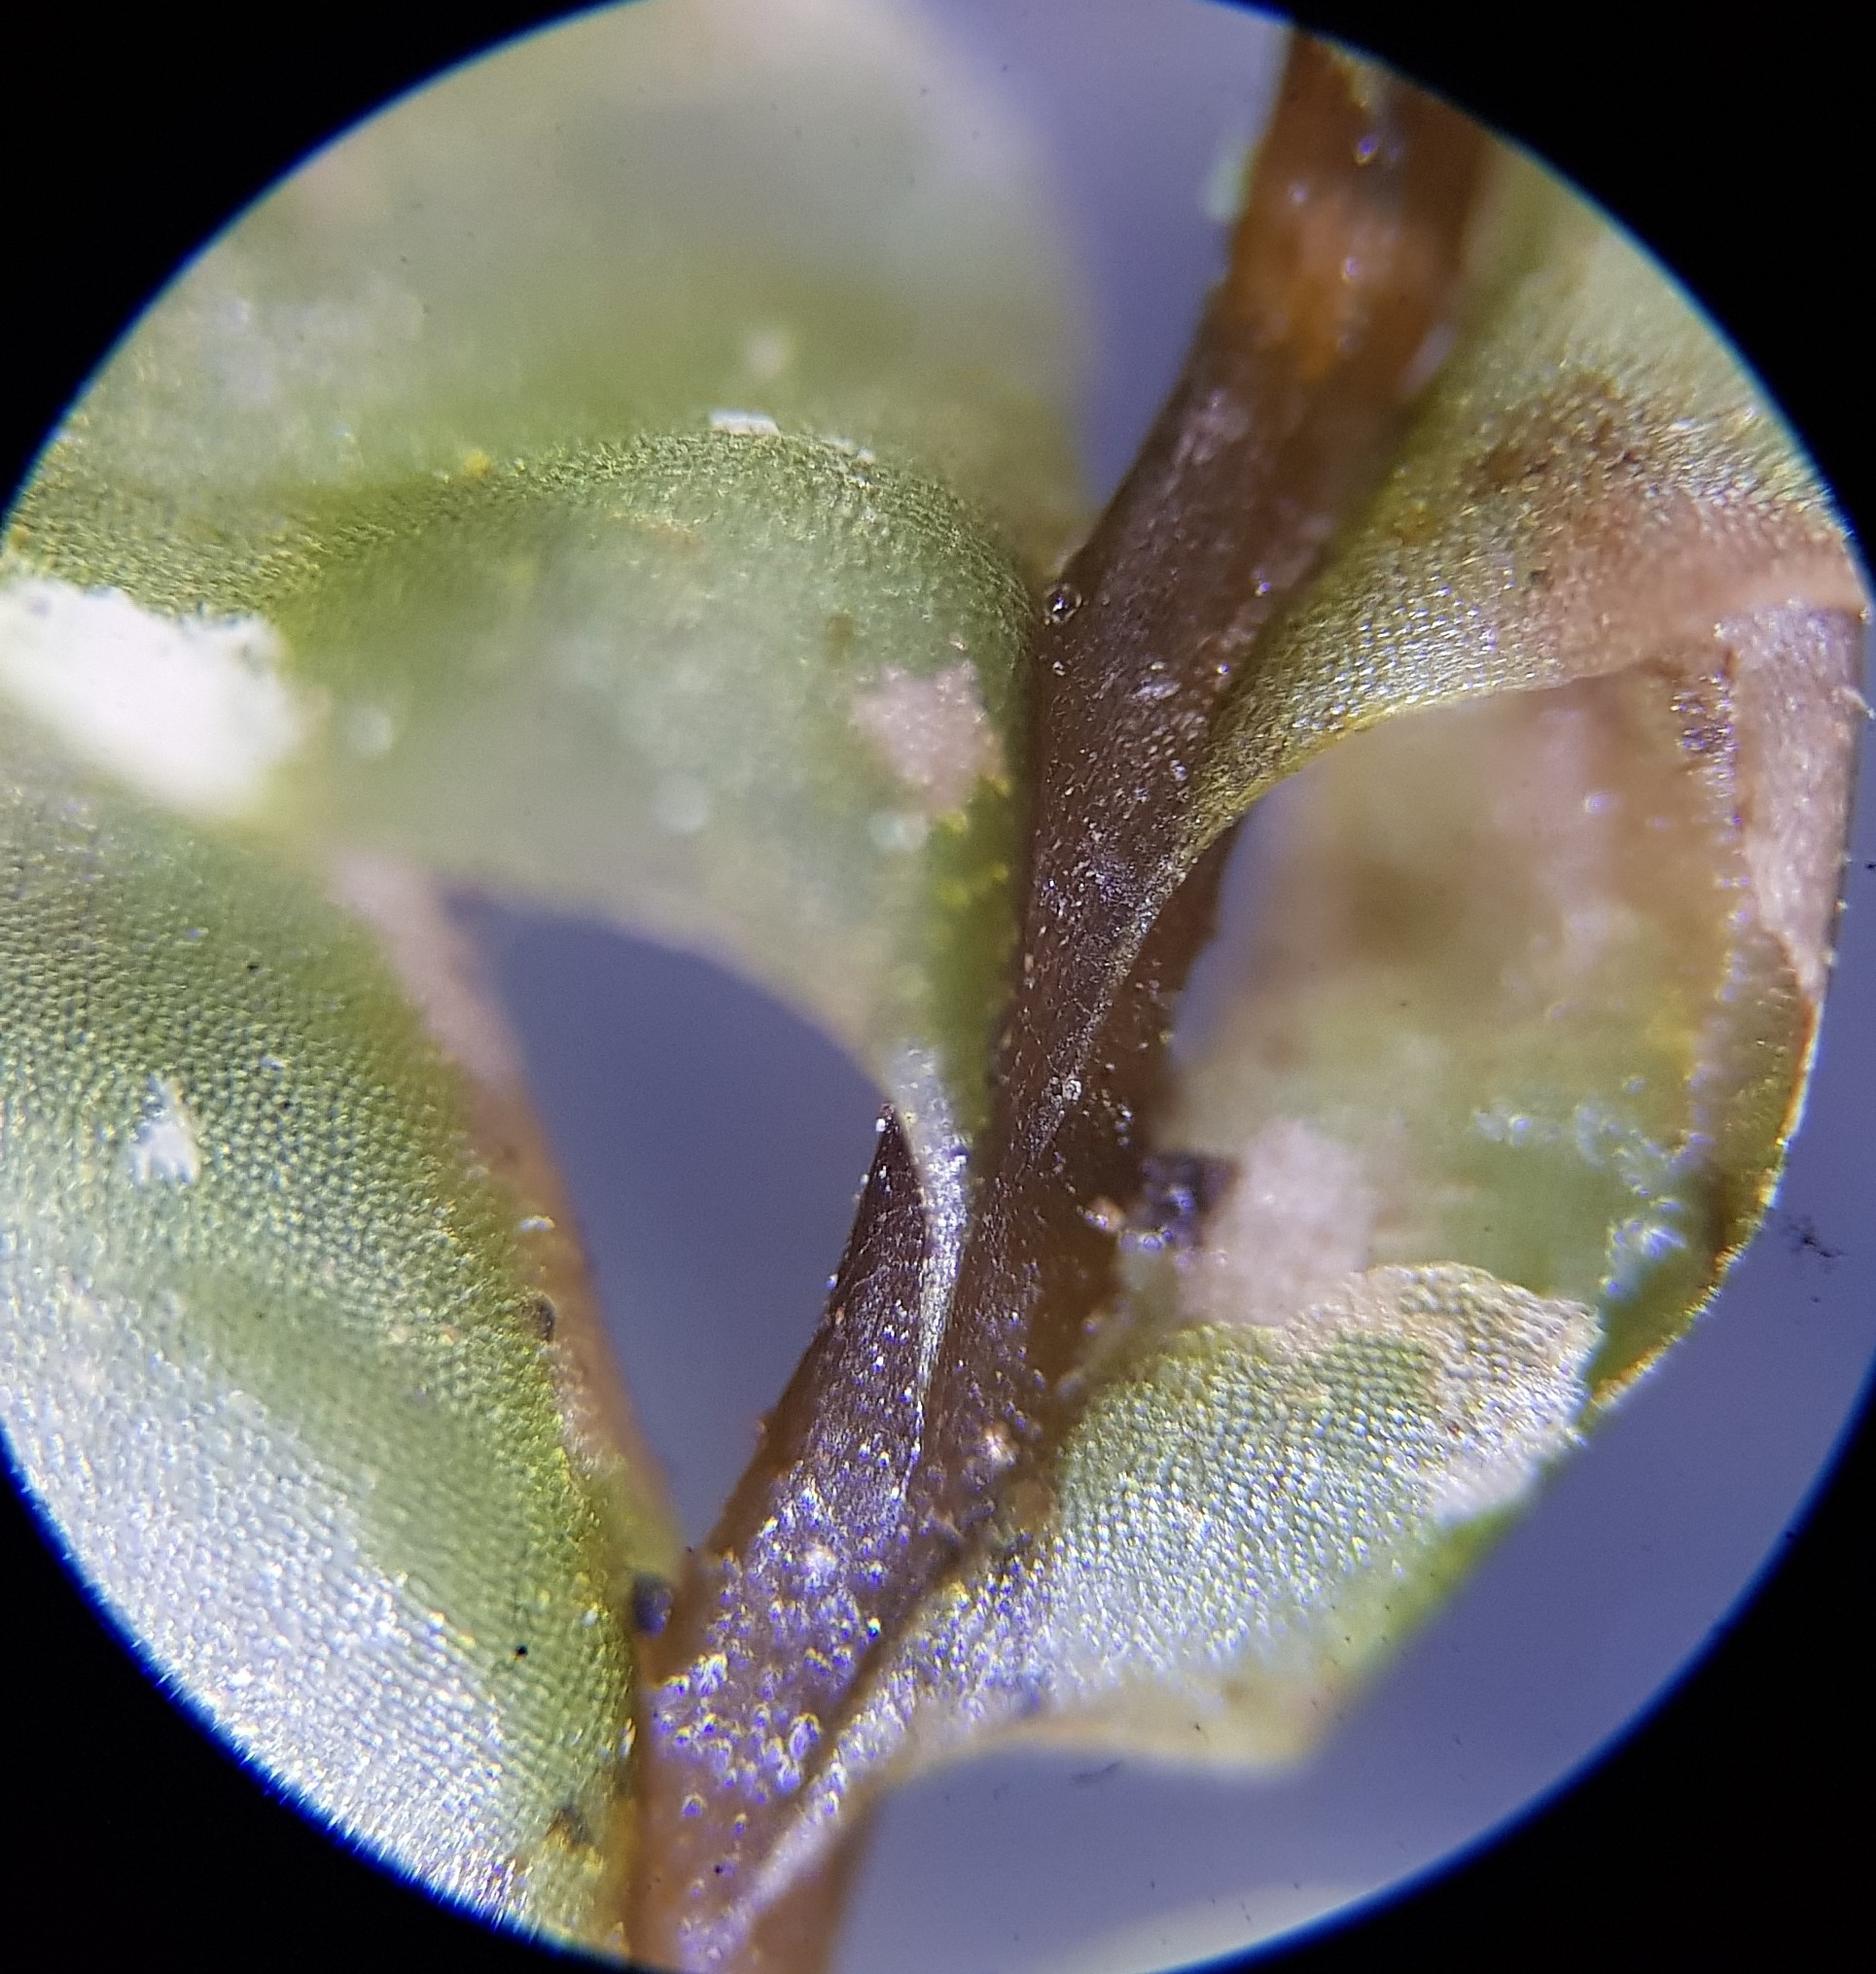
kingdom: Plantae
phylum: Marchantiophyta
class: Jungermanniopsida
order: Jungermanniales
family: Plagiochilaceae
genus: Plagiochila
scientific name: Plagiochila asplenioides
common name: Greater featherwort
